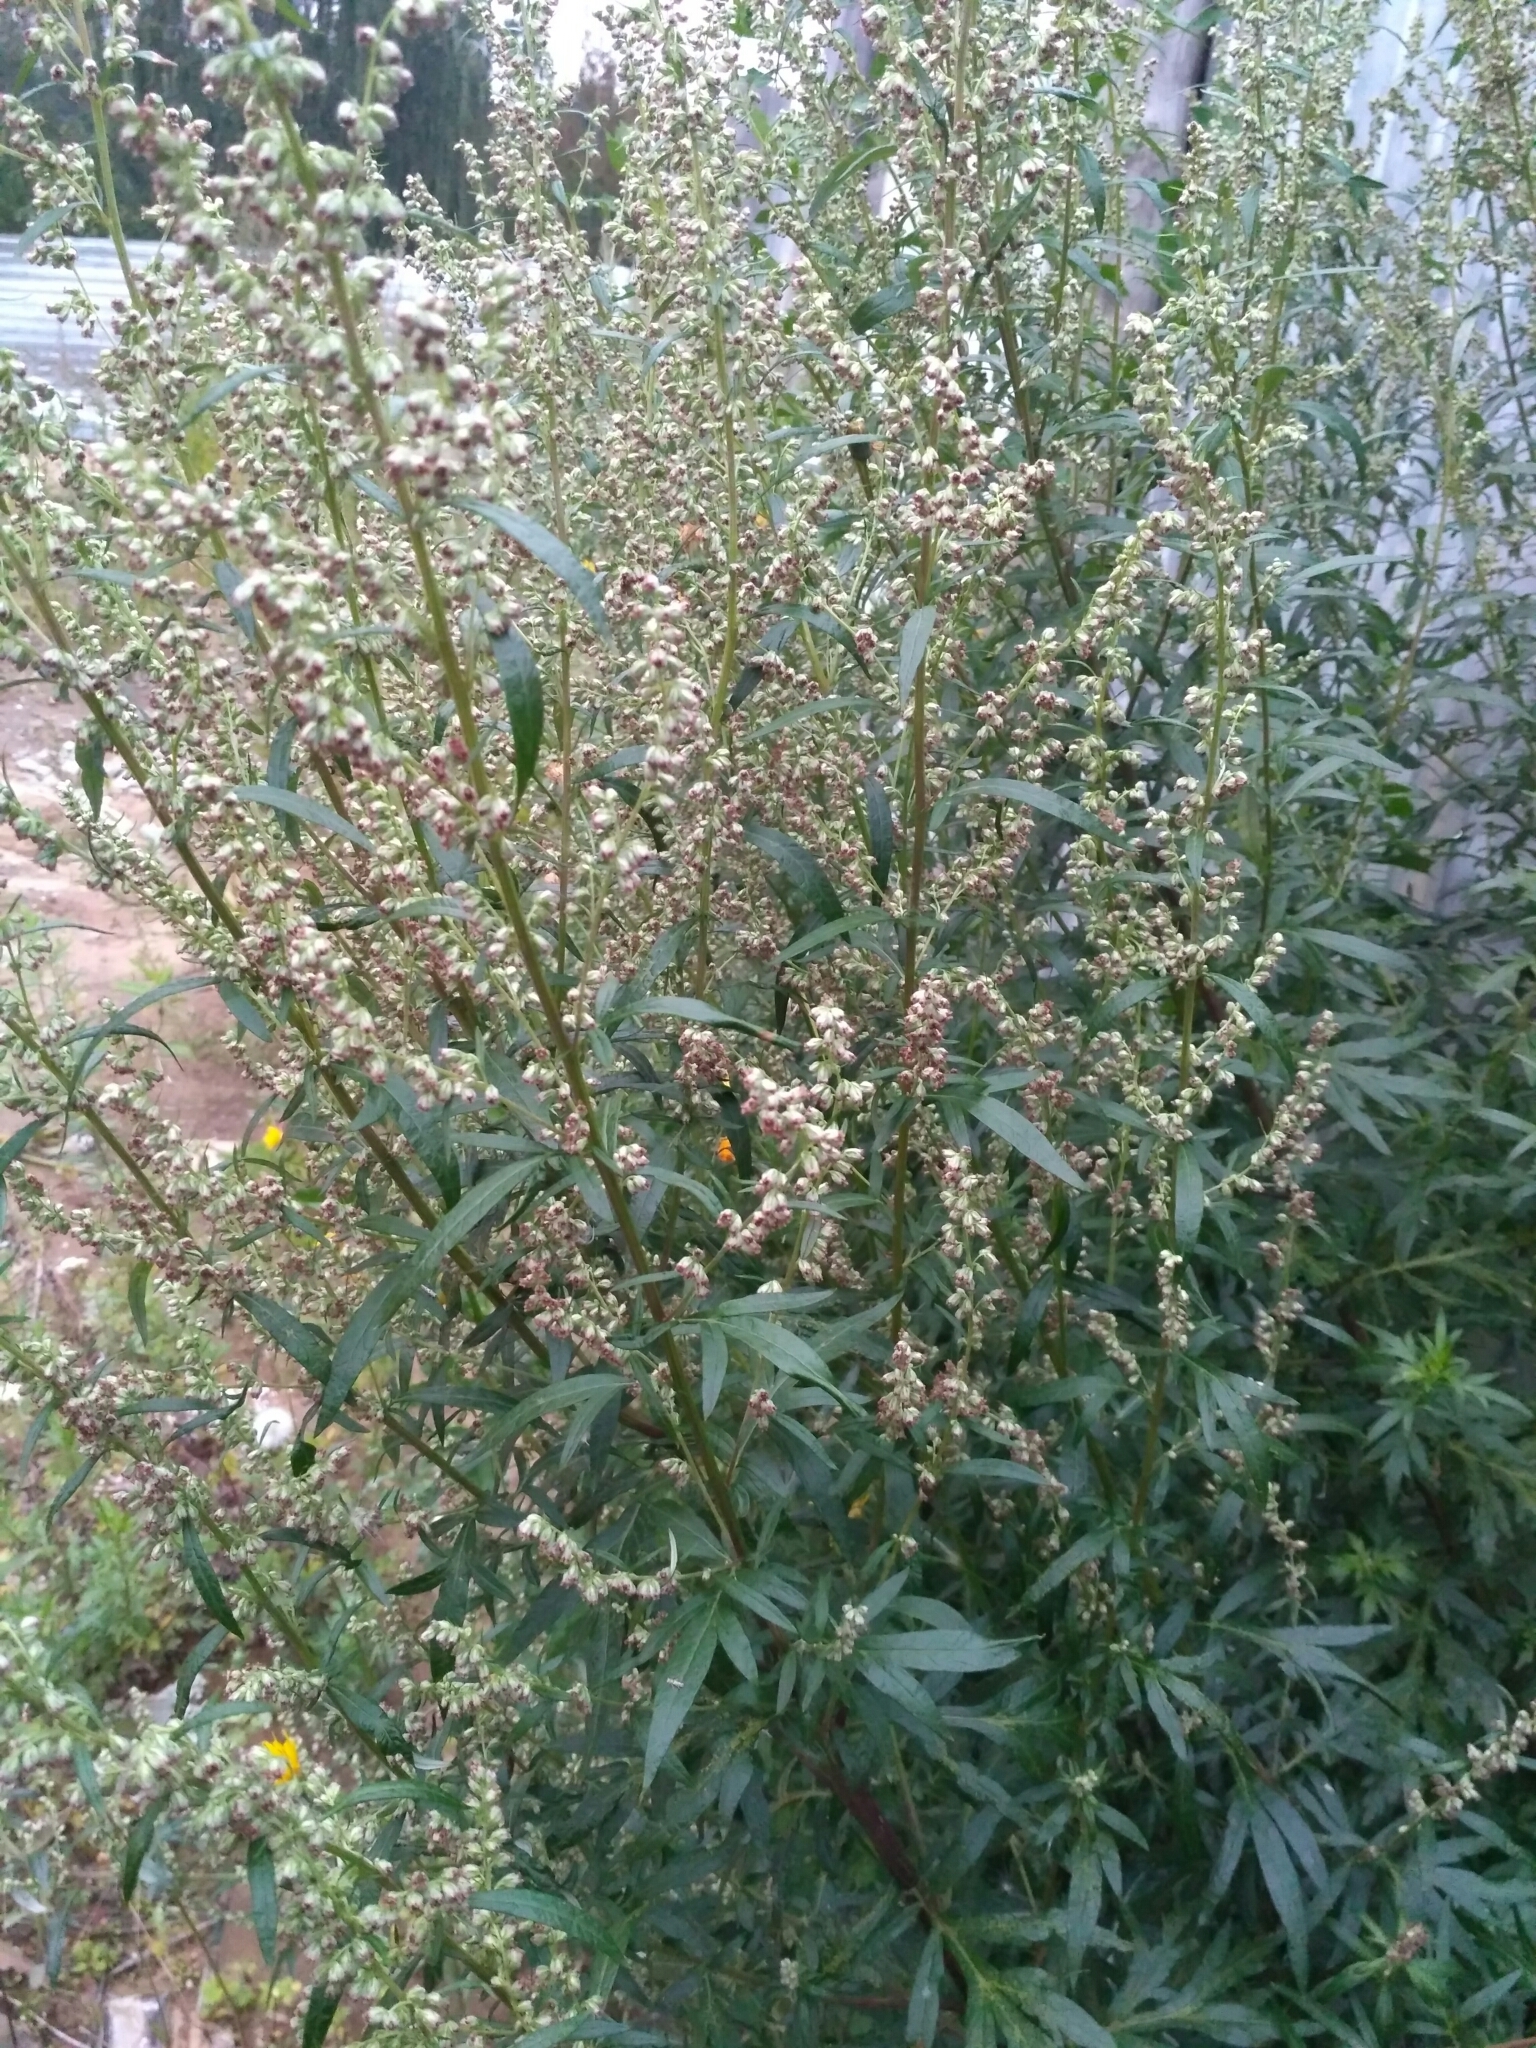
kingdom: Plantae
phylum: Tracheophyta
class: Magnoliopsida
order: Asterales
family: Asteraceae
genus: Artemisia
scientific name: Artemisia vulgaris
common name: Mugwort
